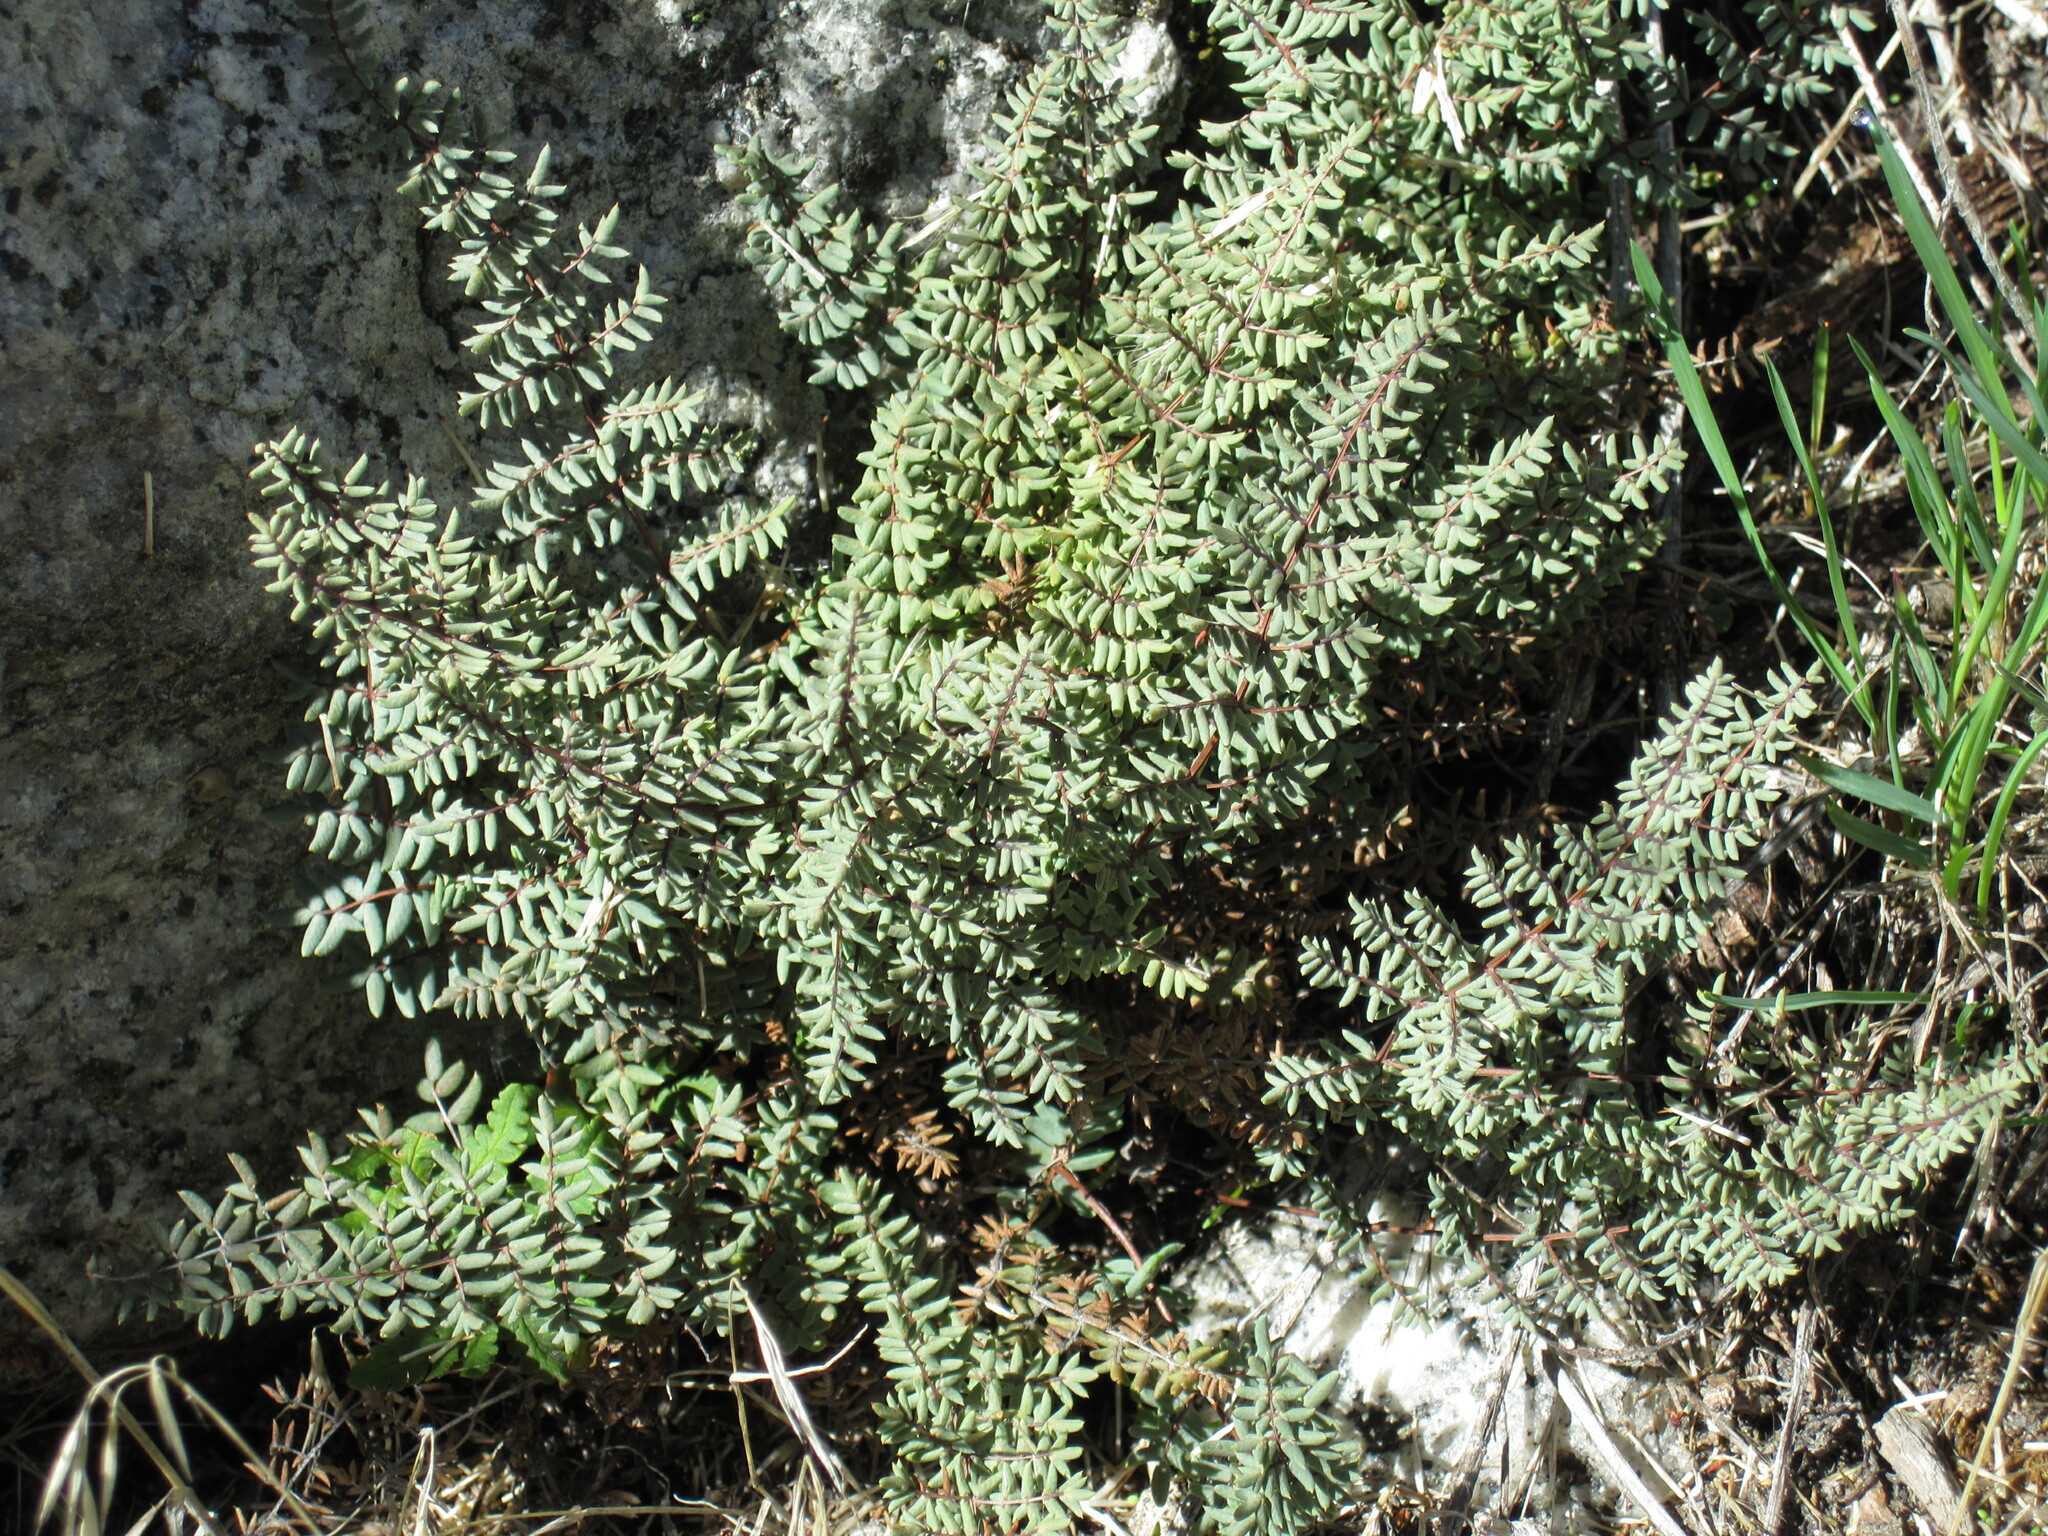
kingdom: Plantae
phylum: Tracheophyta
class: Polypodiopsida
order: Polypodiales
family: Pteridaceae
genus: Pellaea
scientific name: Pellaea mucronata
